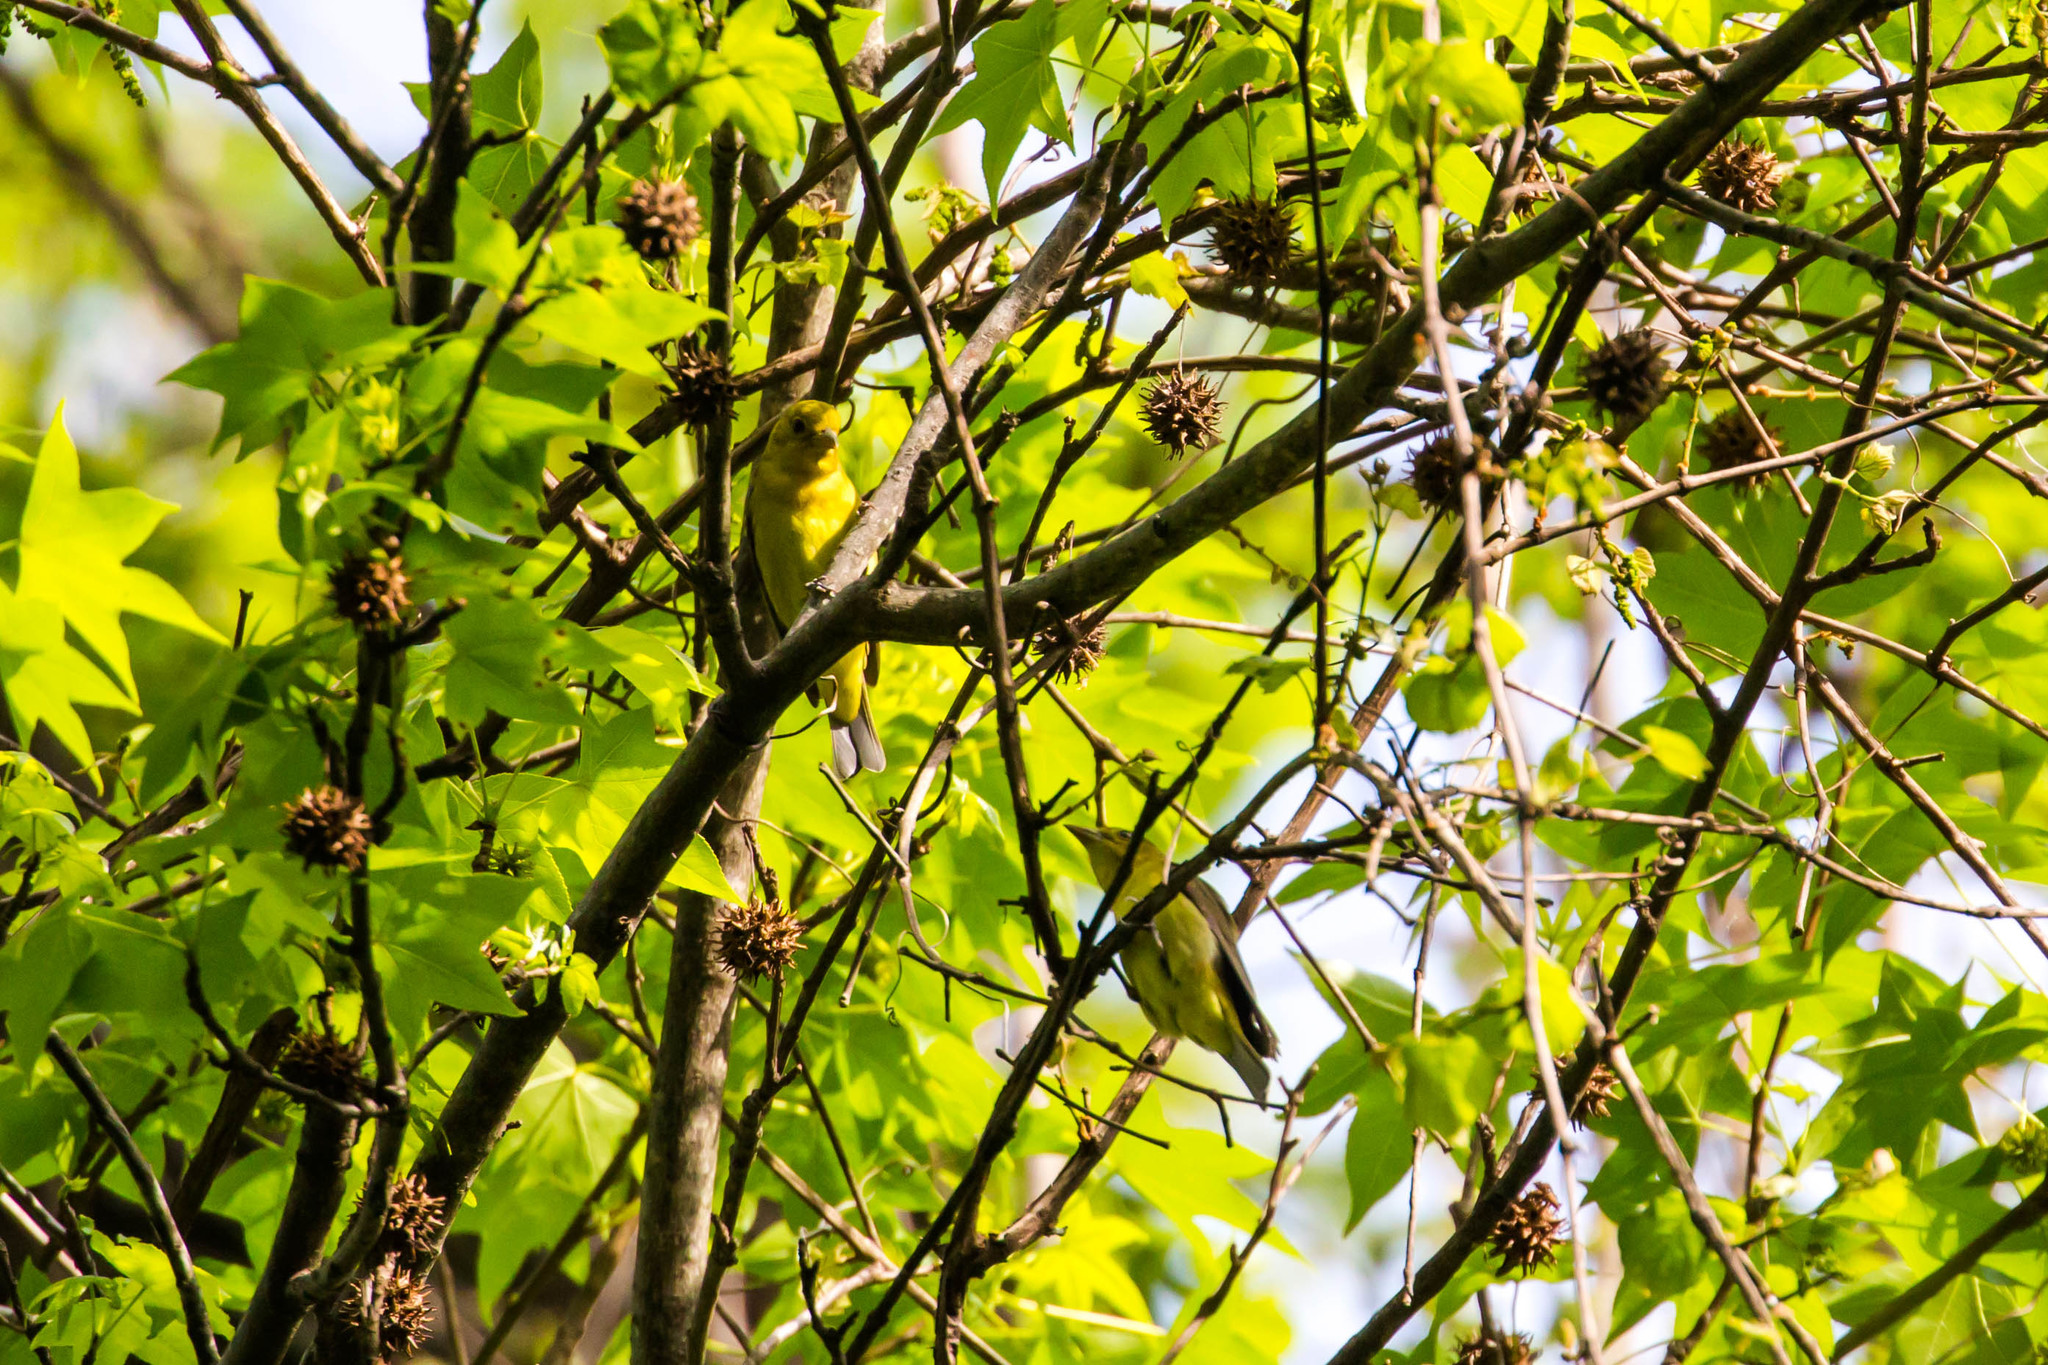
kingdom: Animalia
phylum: Chordata
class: Aves
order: Passeriformes
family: Cardinalidae
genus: Piranga
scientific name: Piranga rubra
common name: Summer tanager
